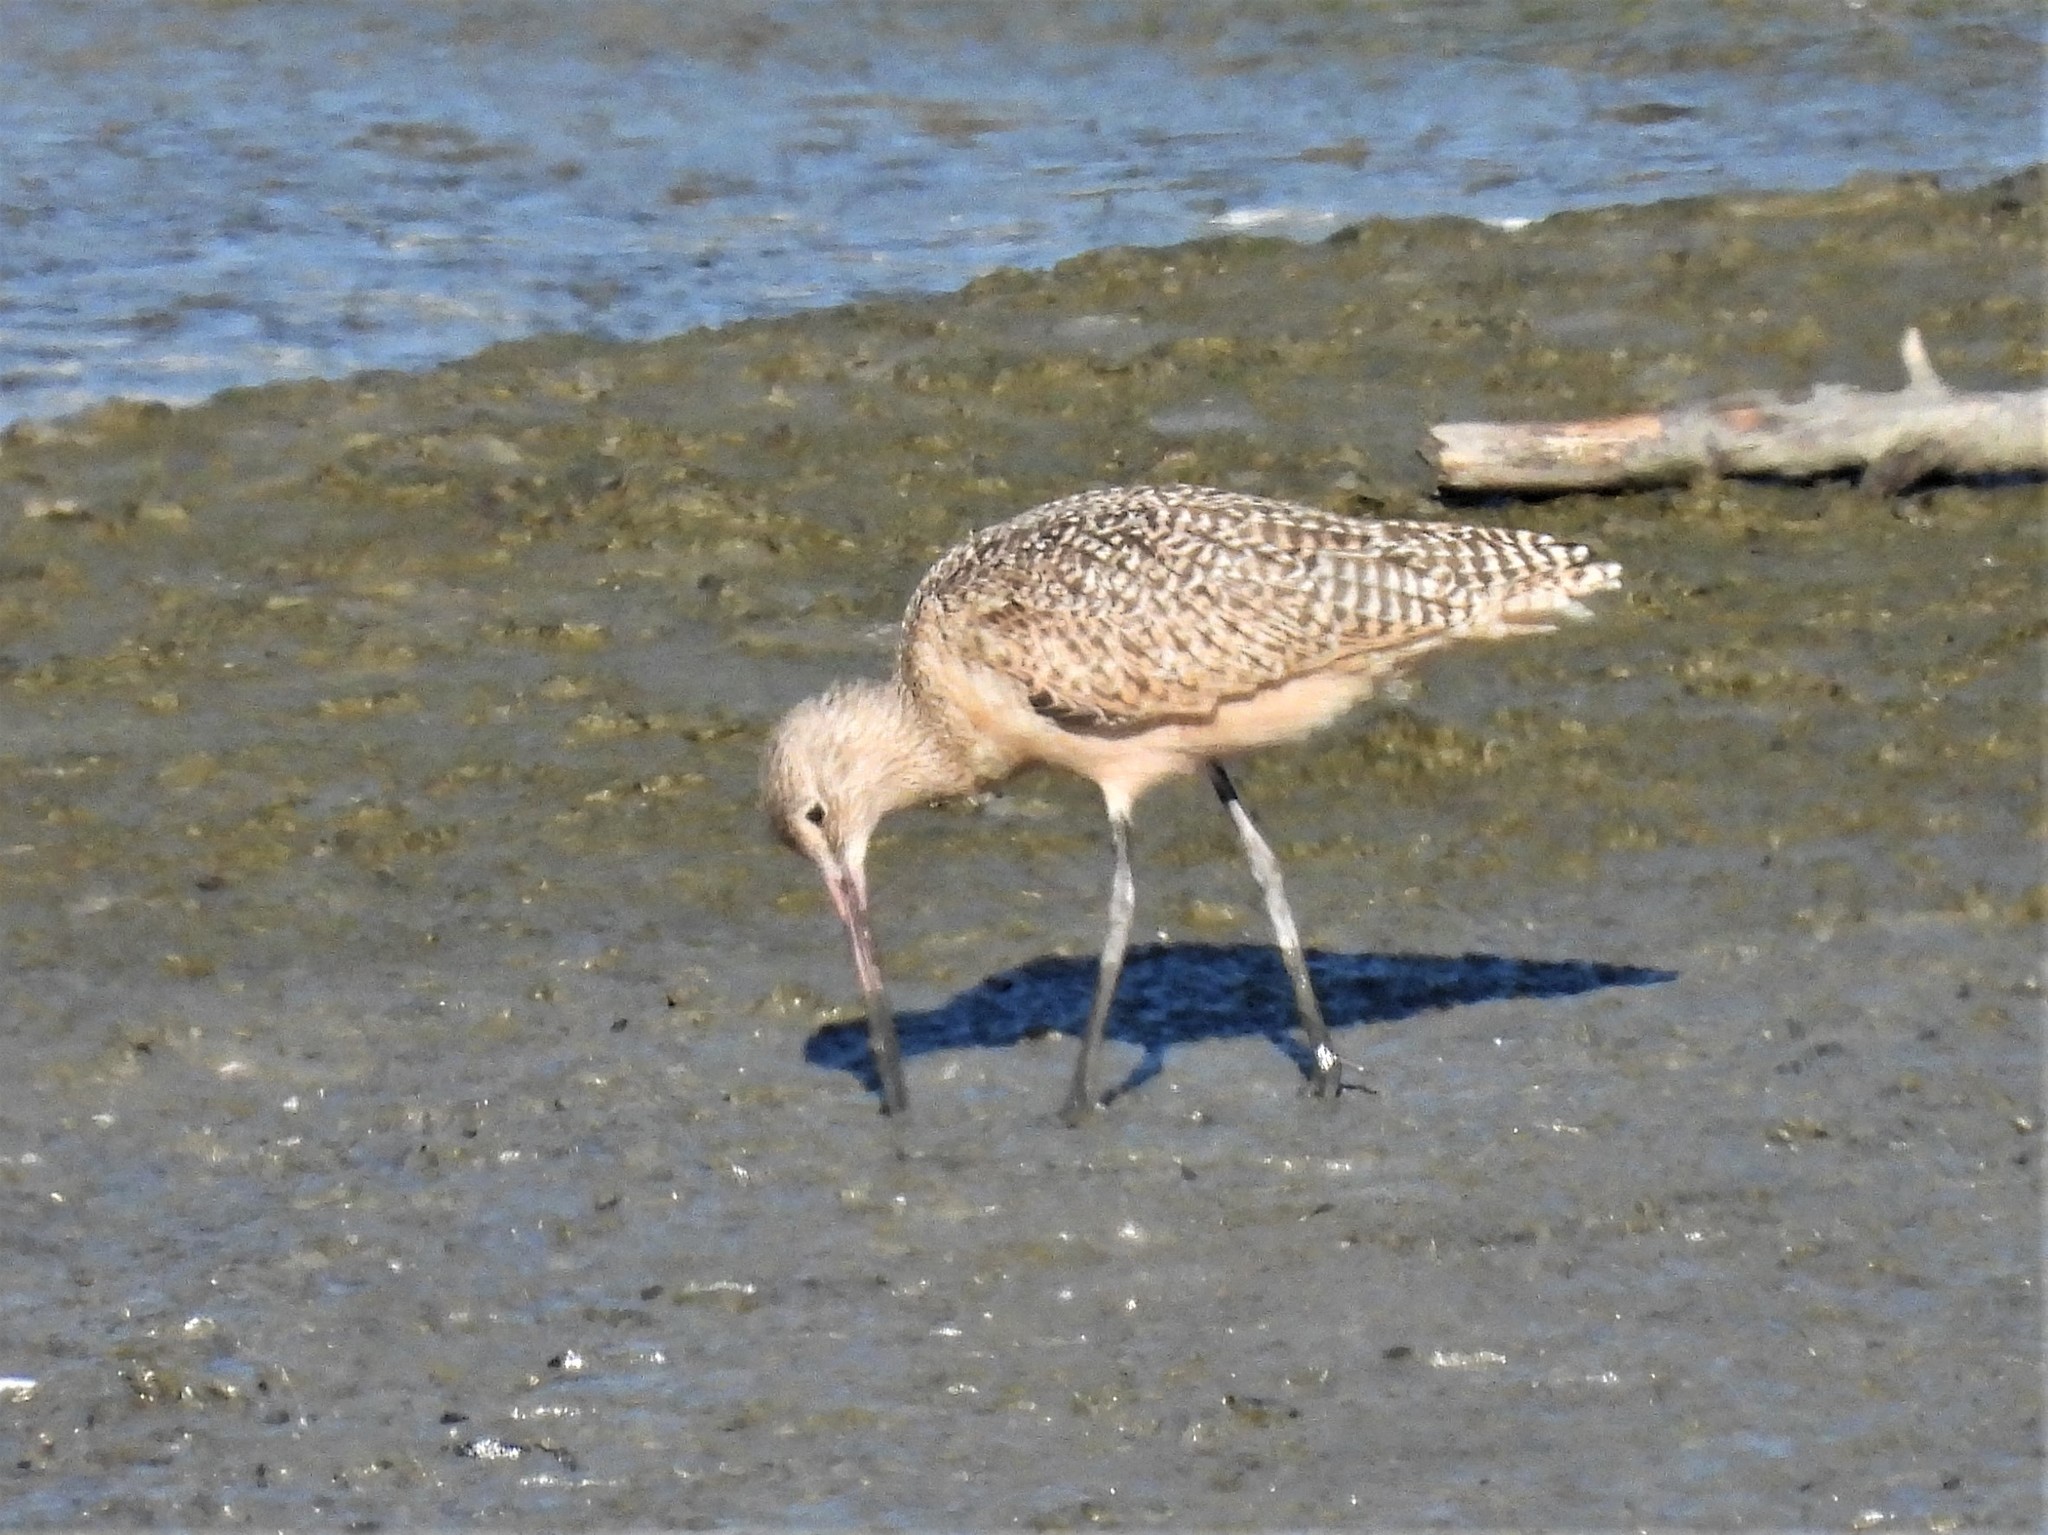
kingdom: Animalia
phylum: Chordata
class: Aves
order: Charadriiformes
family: Scolopacidae
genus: Limosa
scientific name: Limosa fedoa
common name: Marbled godwit
